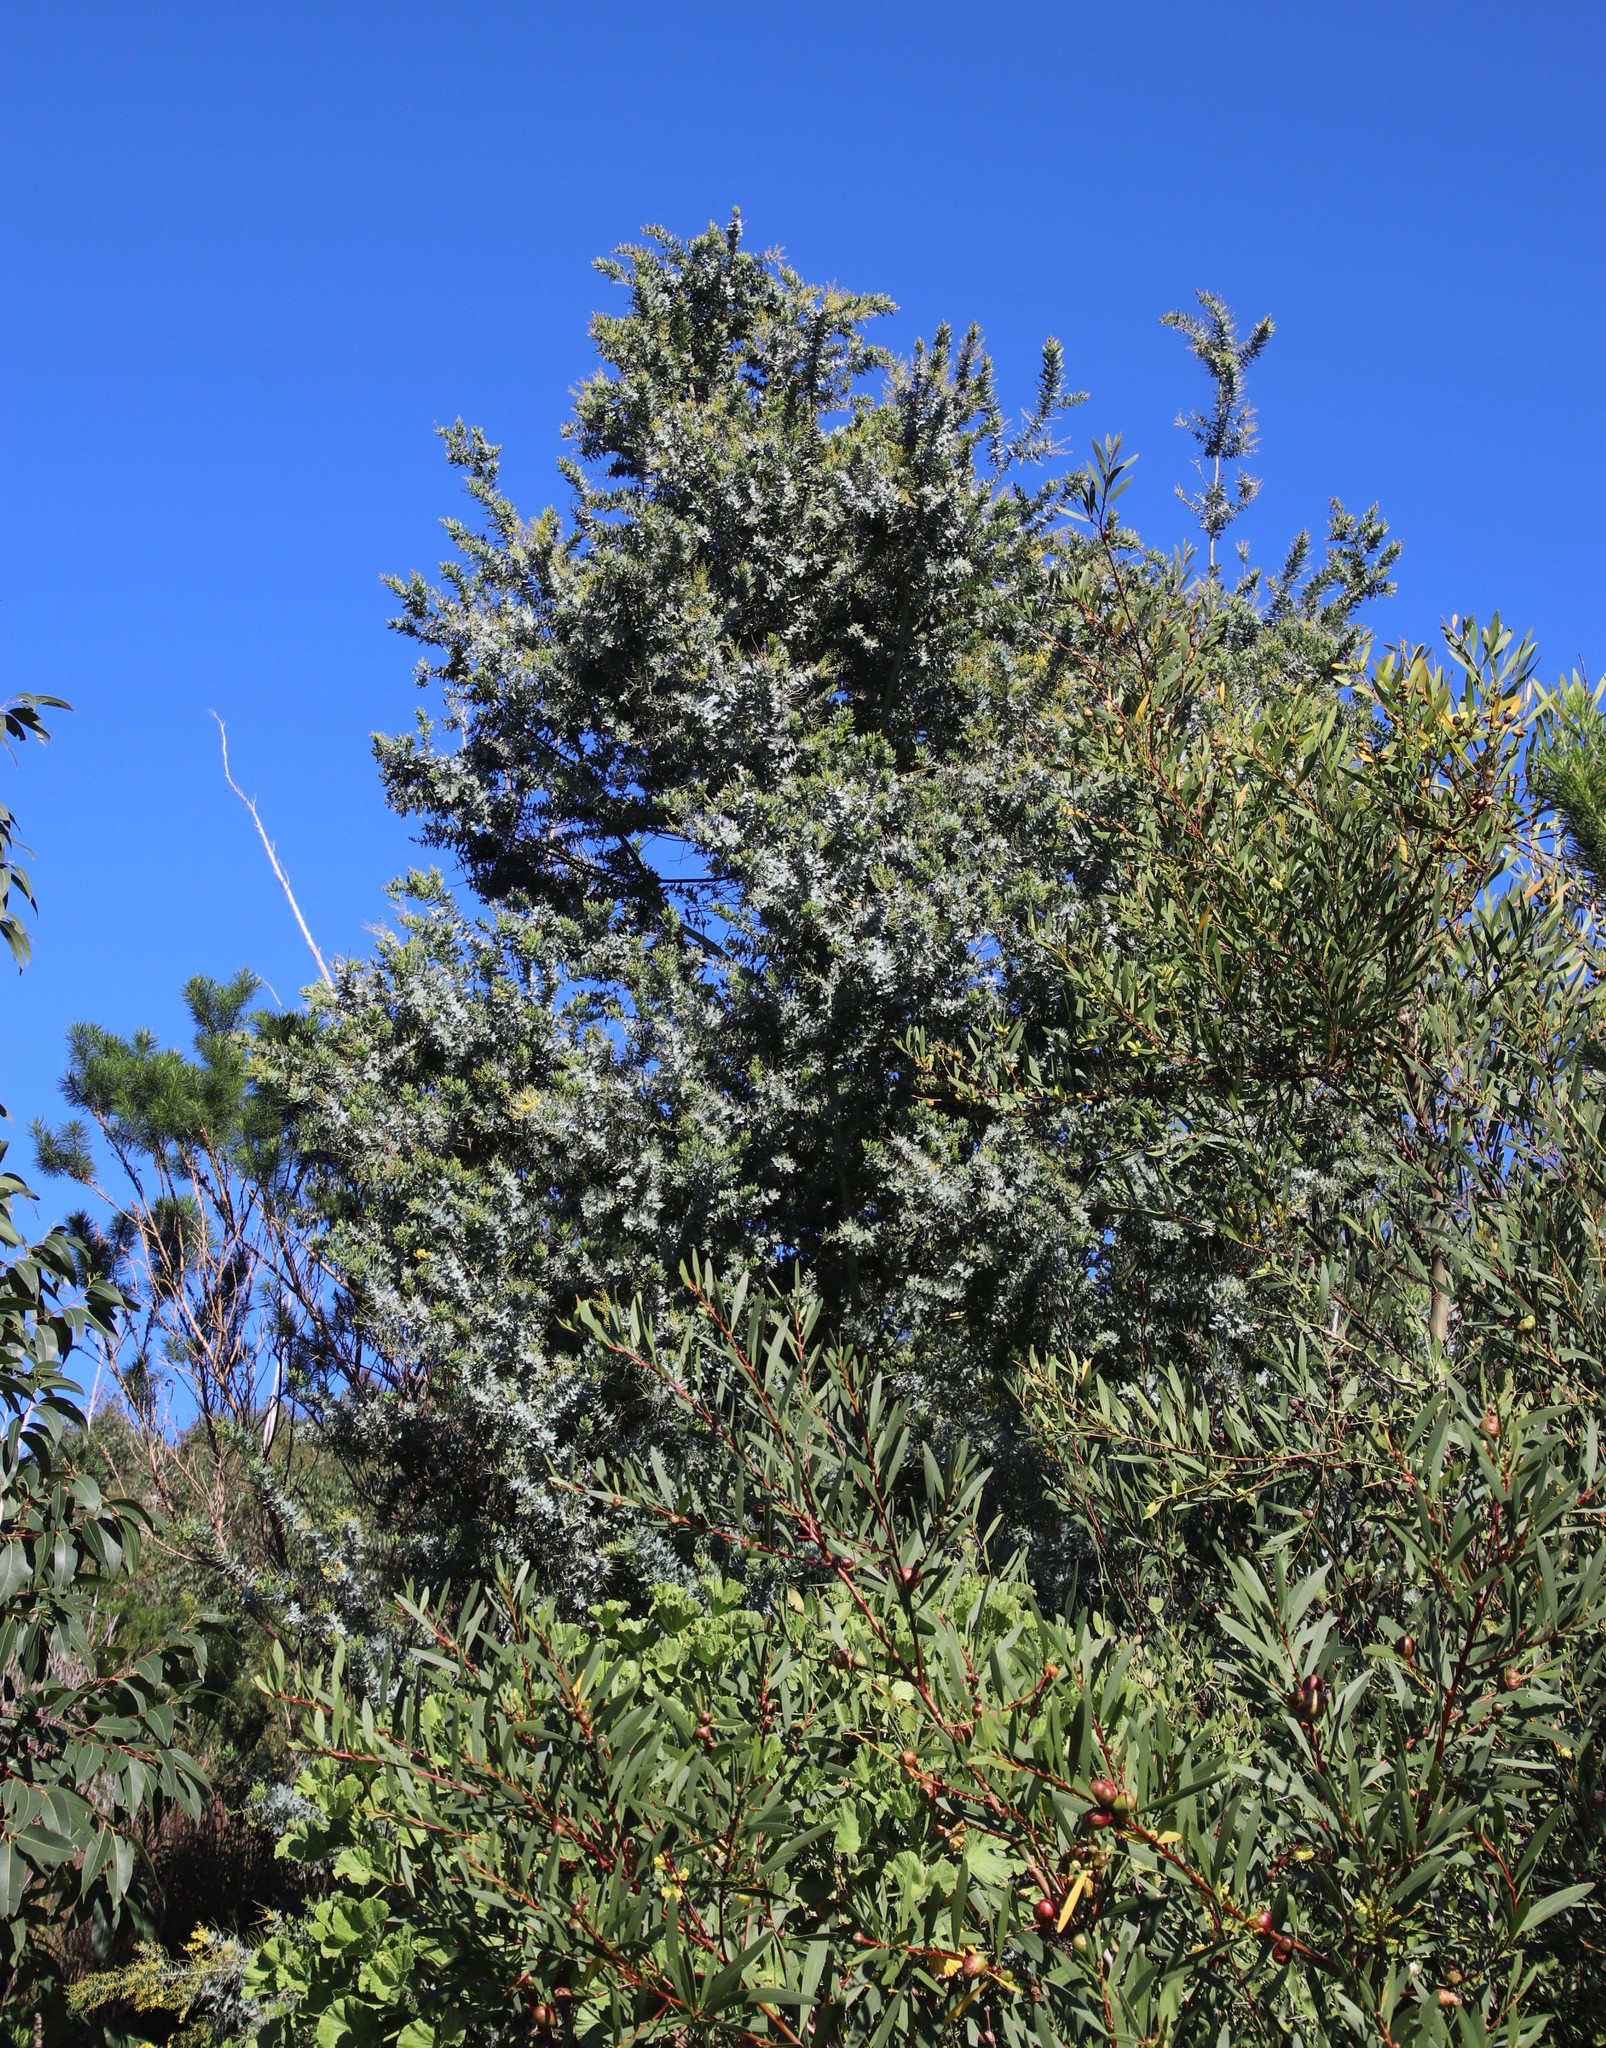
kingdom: Plantae
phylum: Tracheophyta
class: Magnoliopsida
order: Fabales
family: Fabaceae
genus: Acacia
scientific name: Acacia baileyana
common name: Cootamundra wattle
